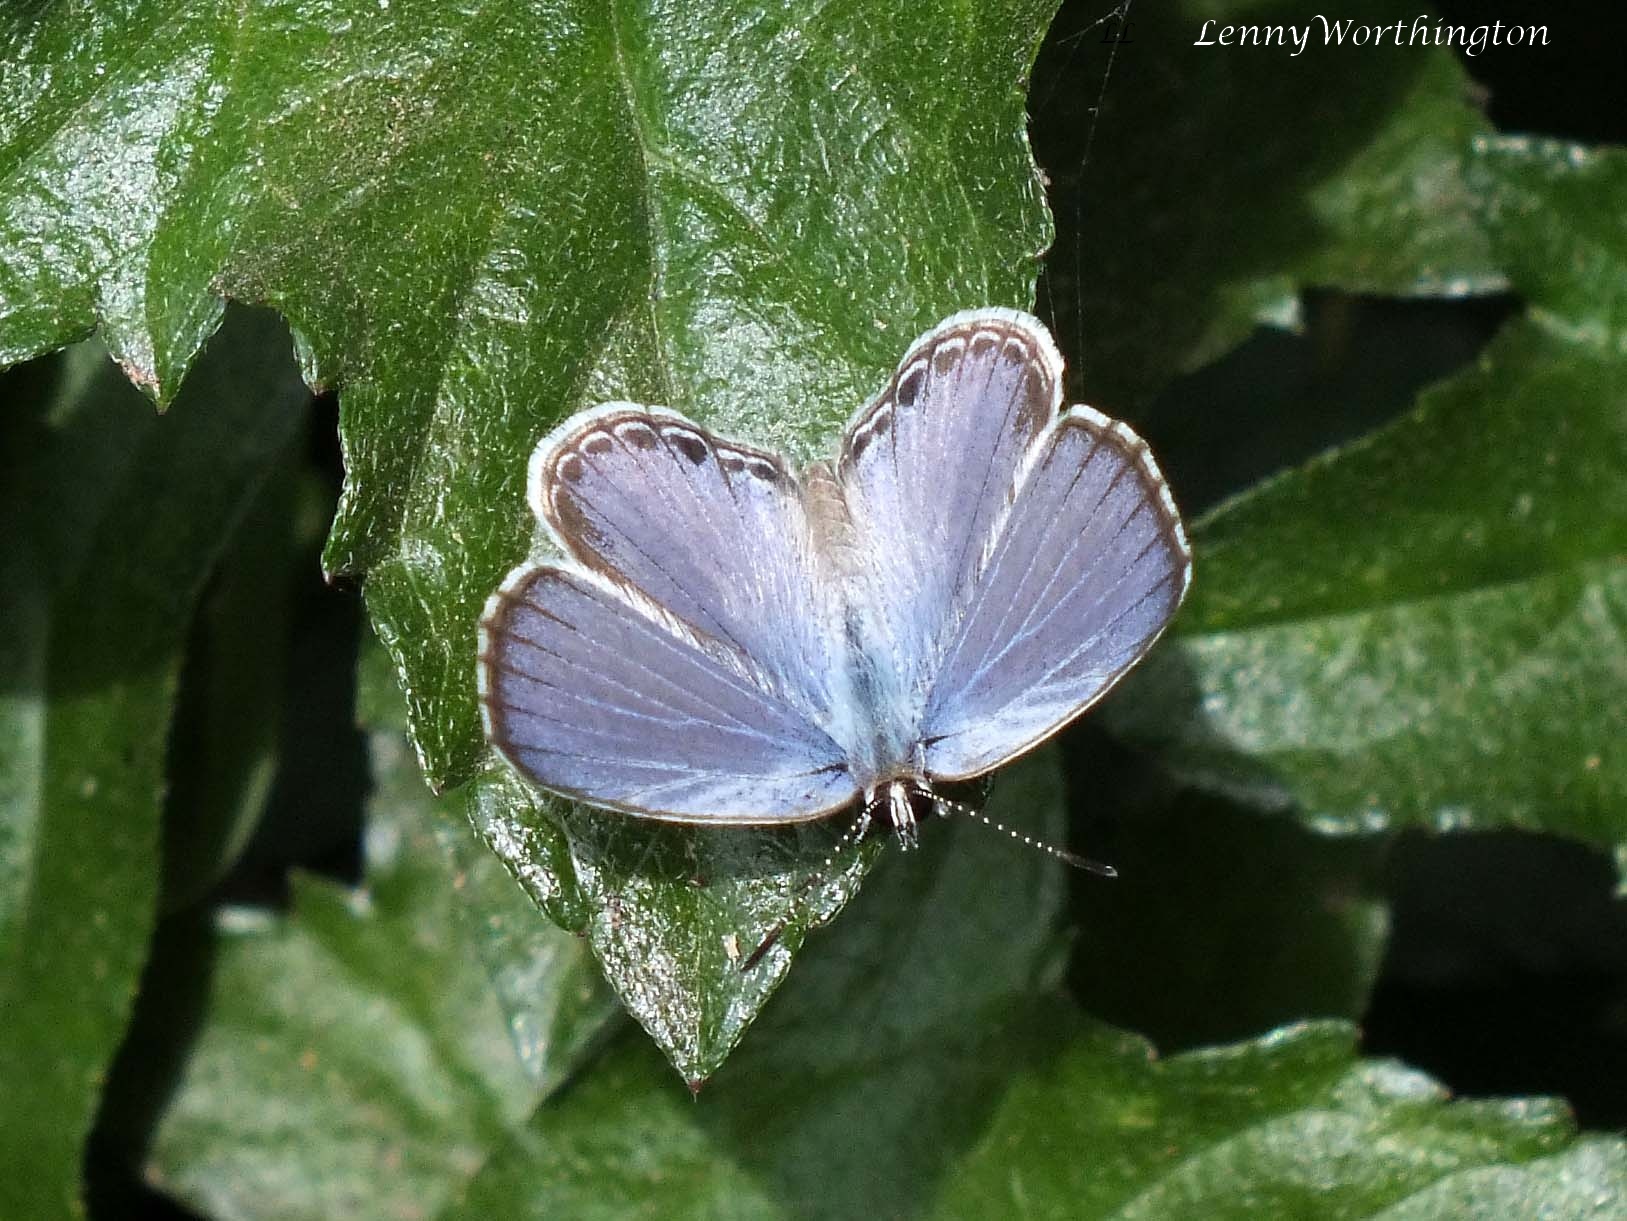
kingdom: Animalia
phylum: Arthropoda
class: Insecta
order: Lepidoptera
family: Lycaenidae
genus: Chilades
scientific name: Chilades laius
